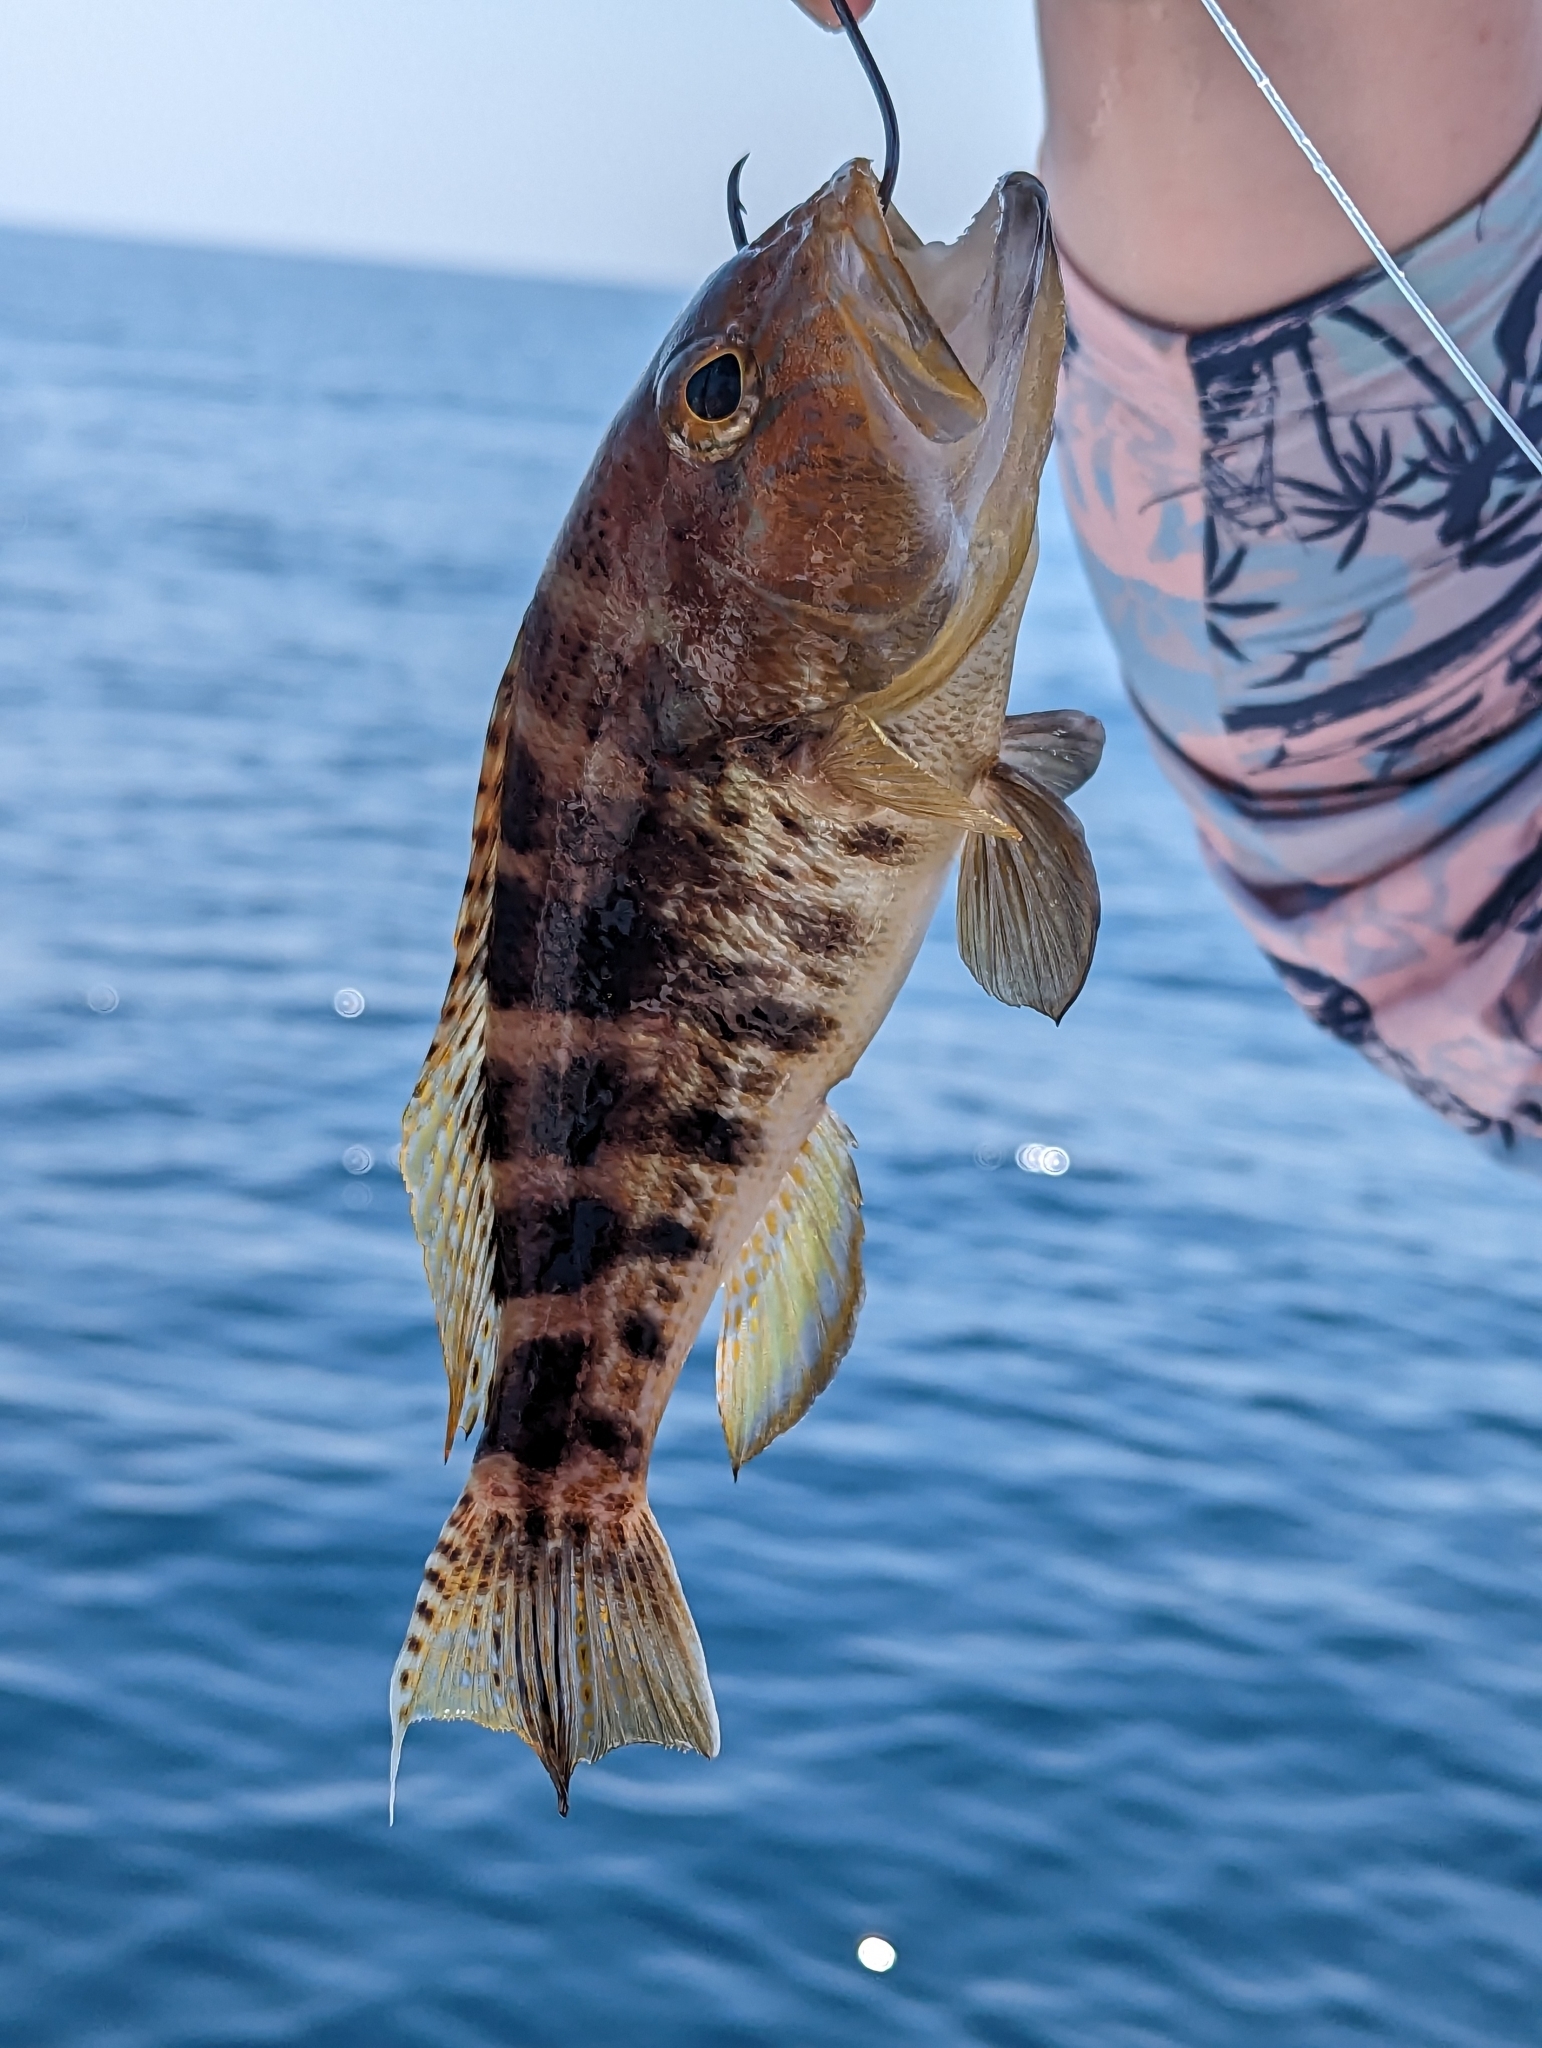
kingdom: Animalia
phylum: Chordata
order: Perciformes
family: Serranidae
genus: Centropristis
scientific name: Centropristis ocyurus
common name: Bank sea bass
